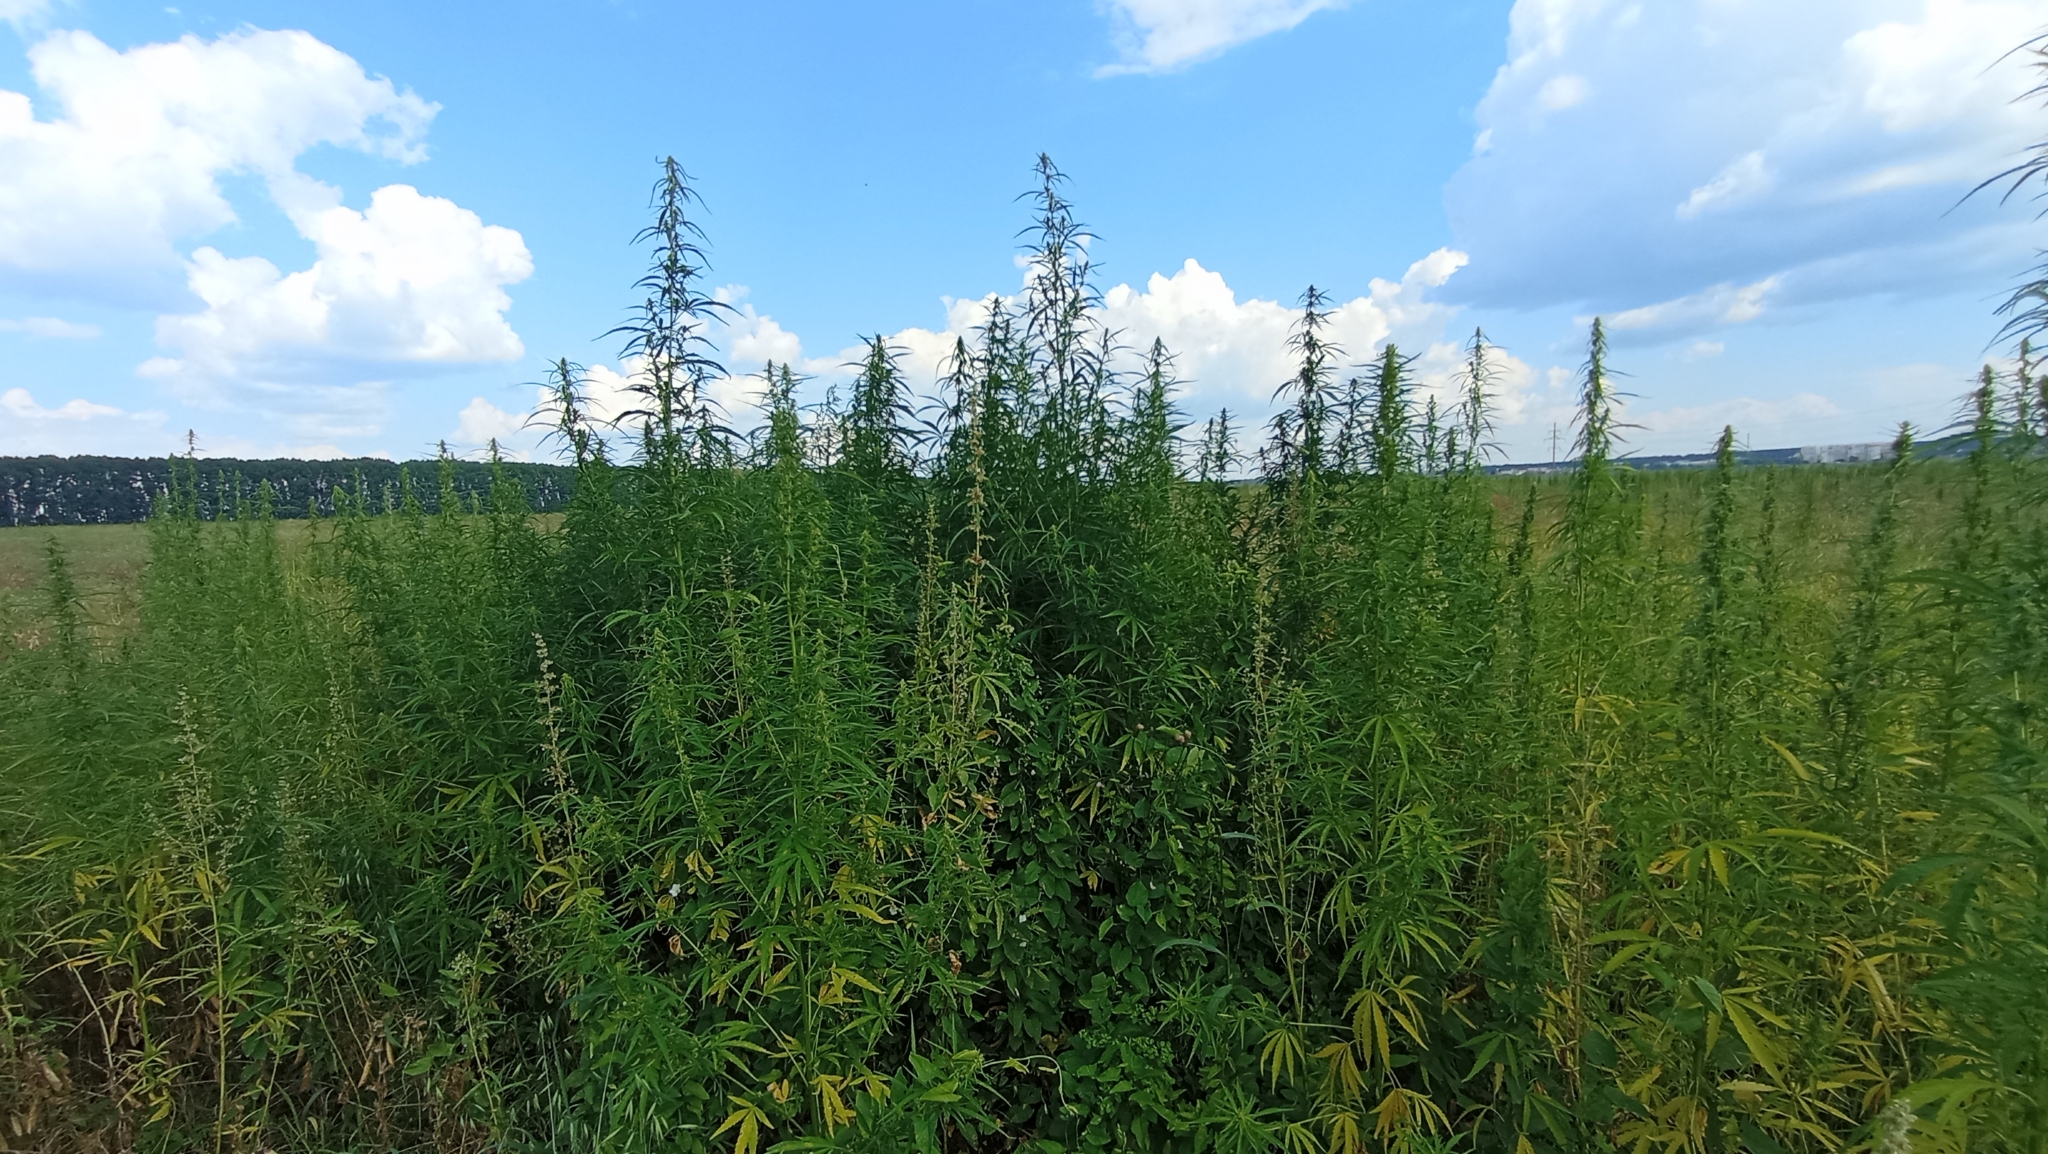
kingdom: Plantae
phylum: Tracheophyta
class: Magnoliopsida
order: Rosales
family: Cannabaceae
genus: Cannabis
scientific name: Cannabis sativa
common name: Hemp
